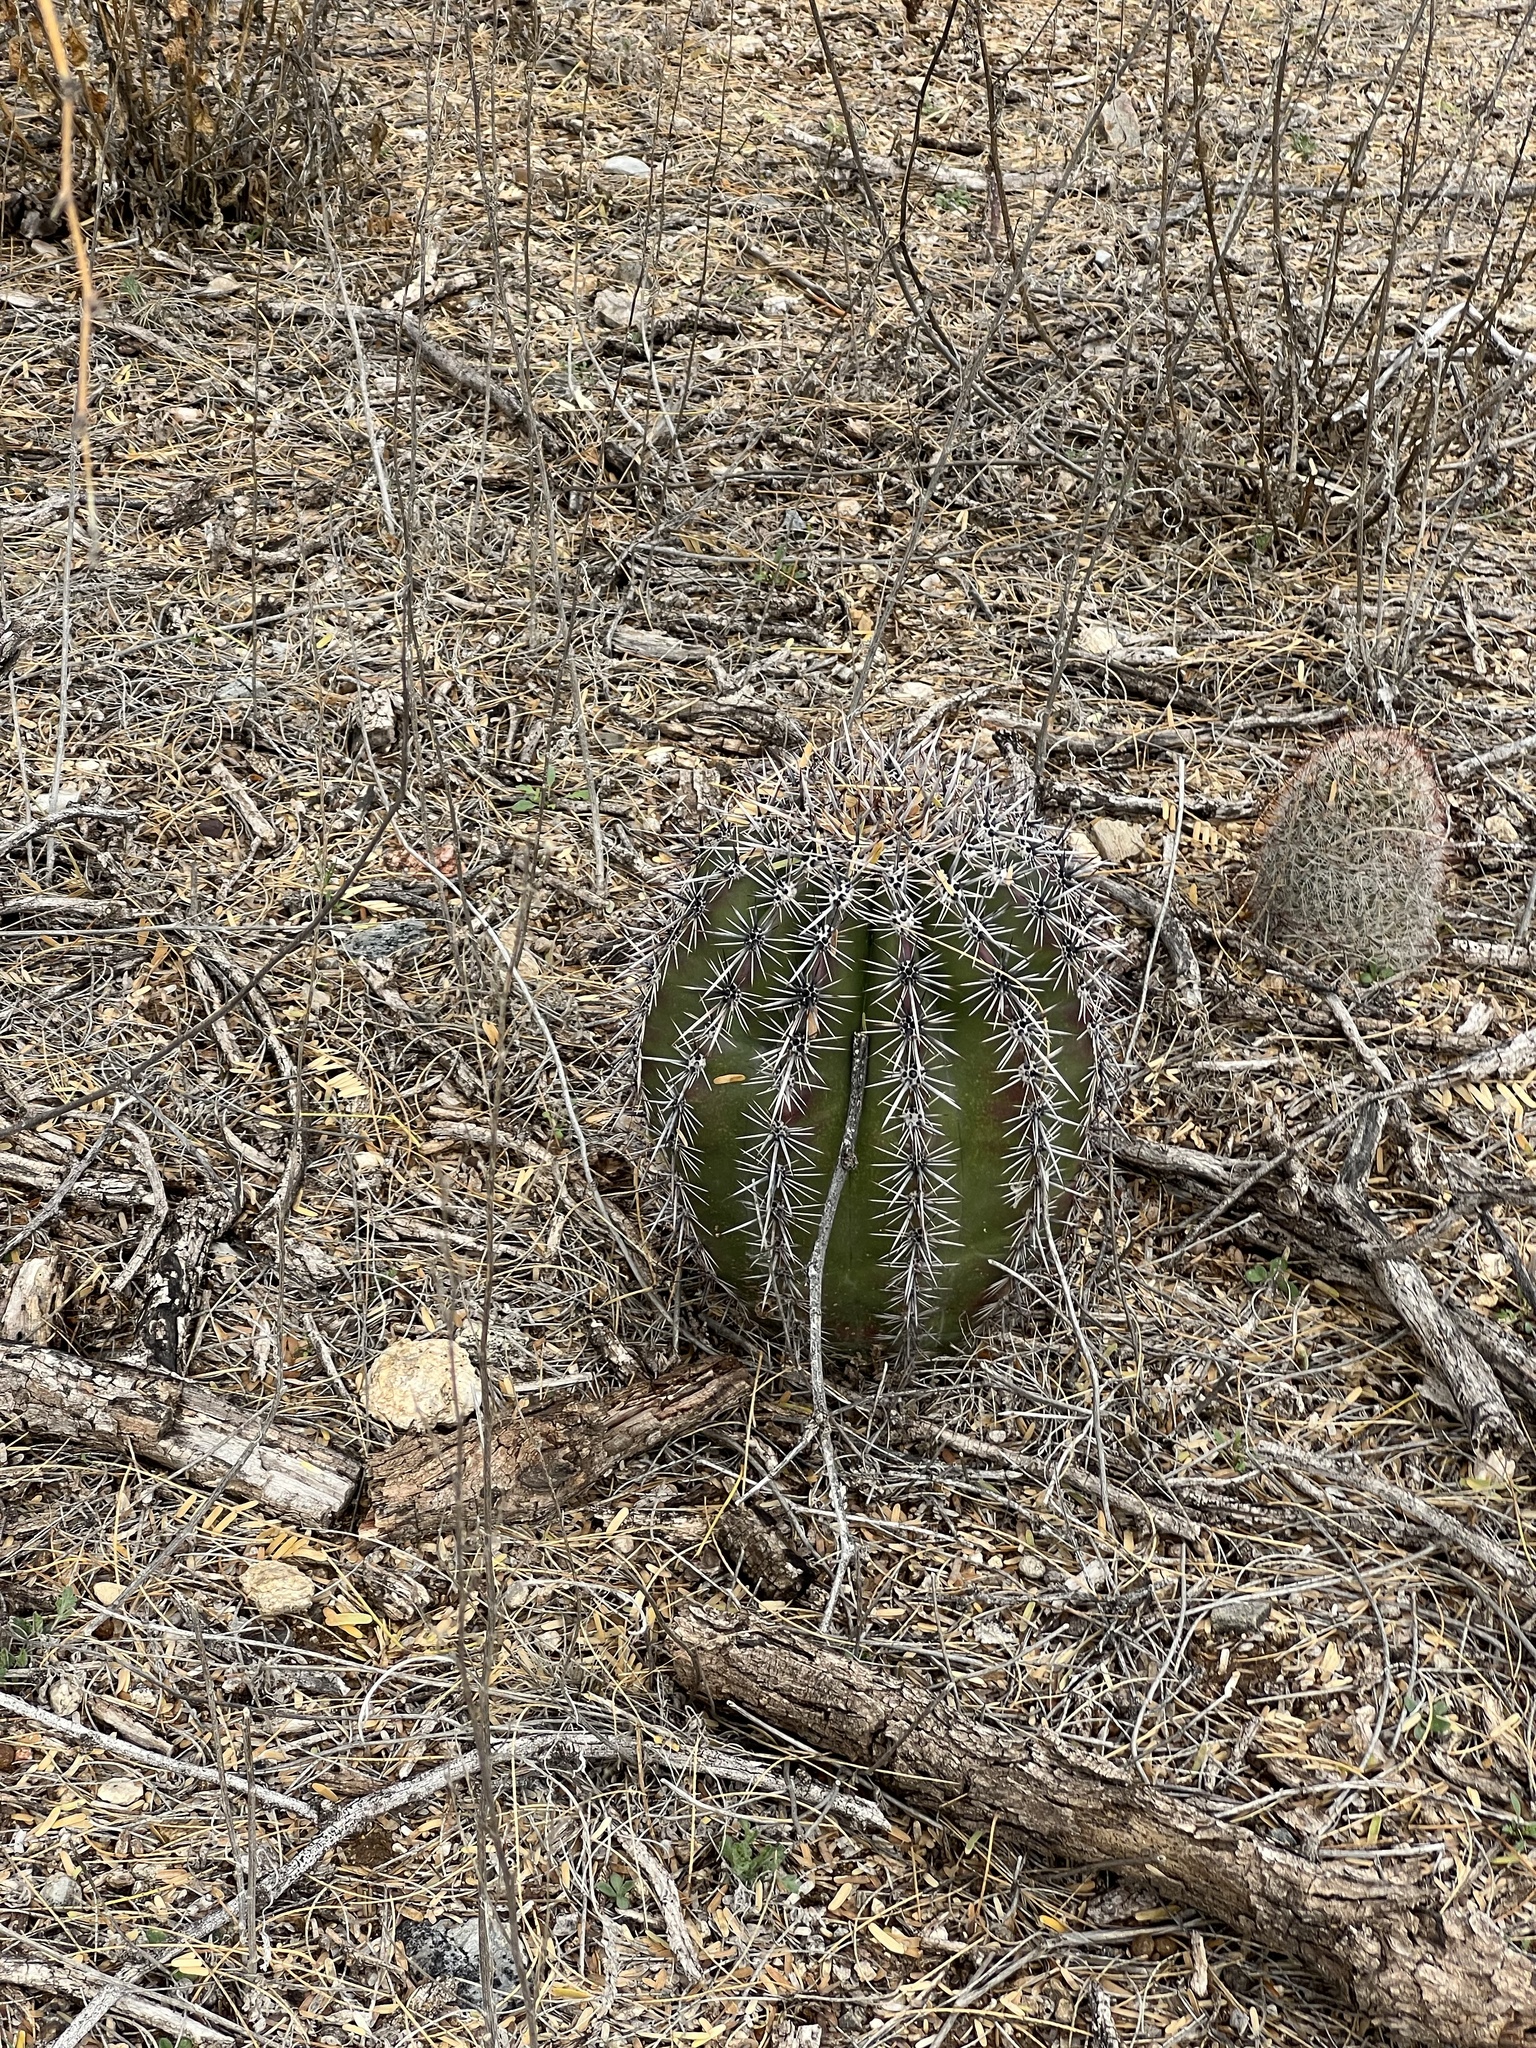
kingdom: Plantae
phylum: Tracheophyta
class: Magnoliopsida
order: Caryophyllales
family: Cactaceae
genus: Carnegiea
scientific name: Carnegiea gigantea
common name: Saguaro
